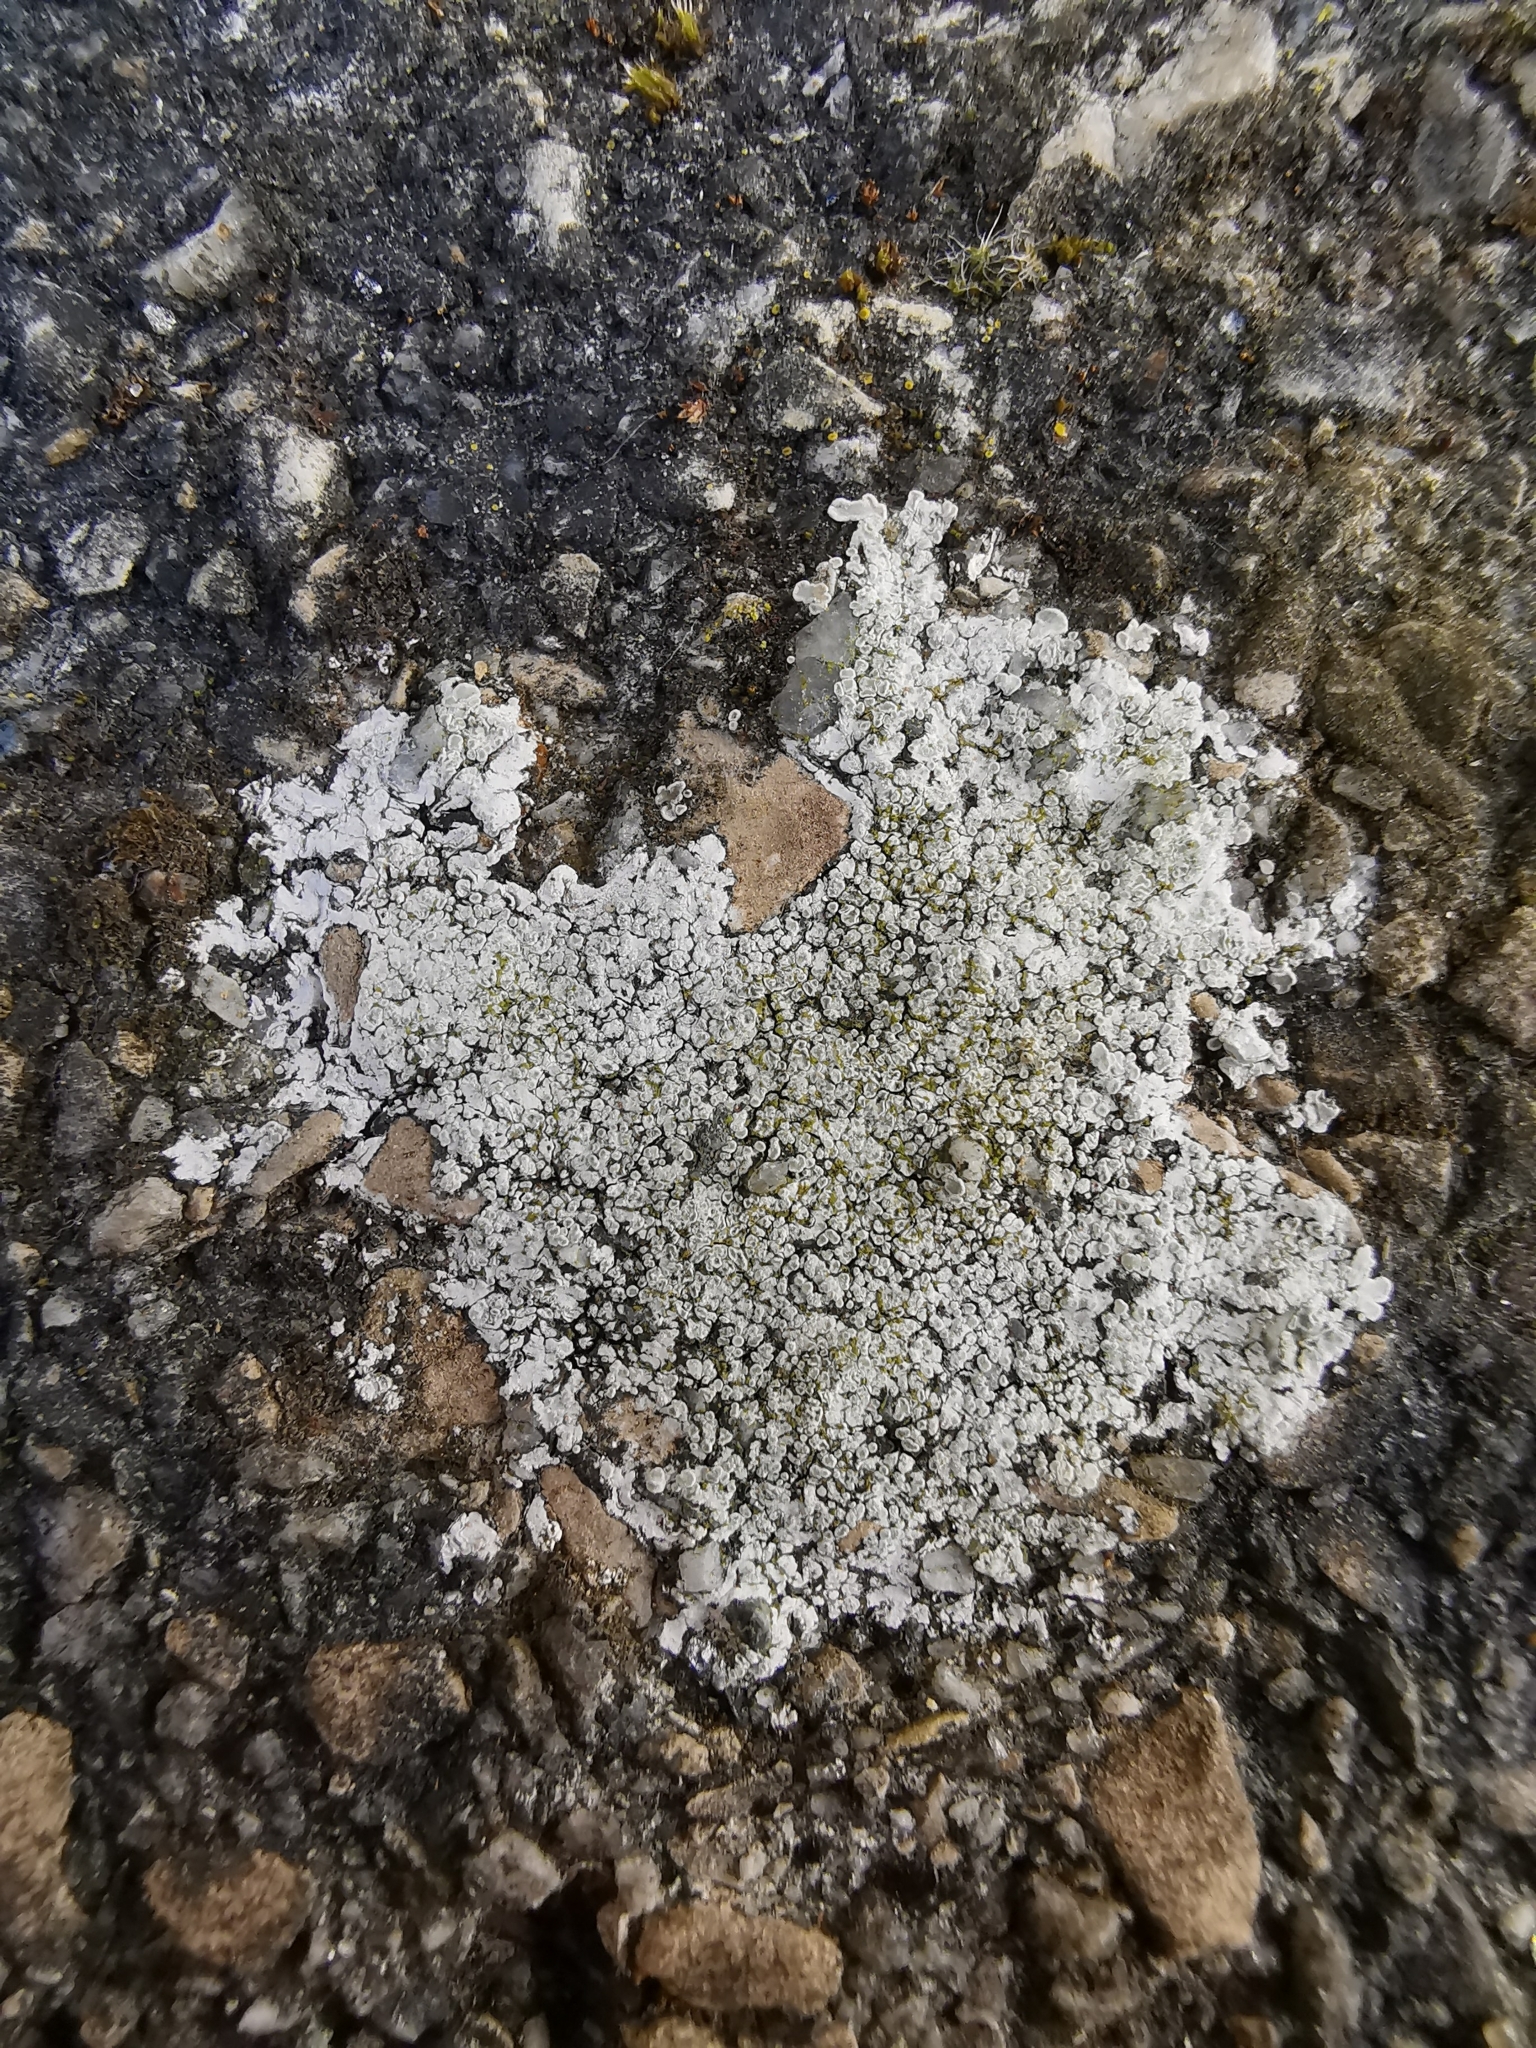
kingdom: Fungi
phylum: Ascomycota
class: Lecanoromycetes
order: Lecanorales
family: Lecanoraceae
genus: Protoparmeliopsis
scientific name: Protoparmeliopsis muralis
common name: Stonewall rim lichen
